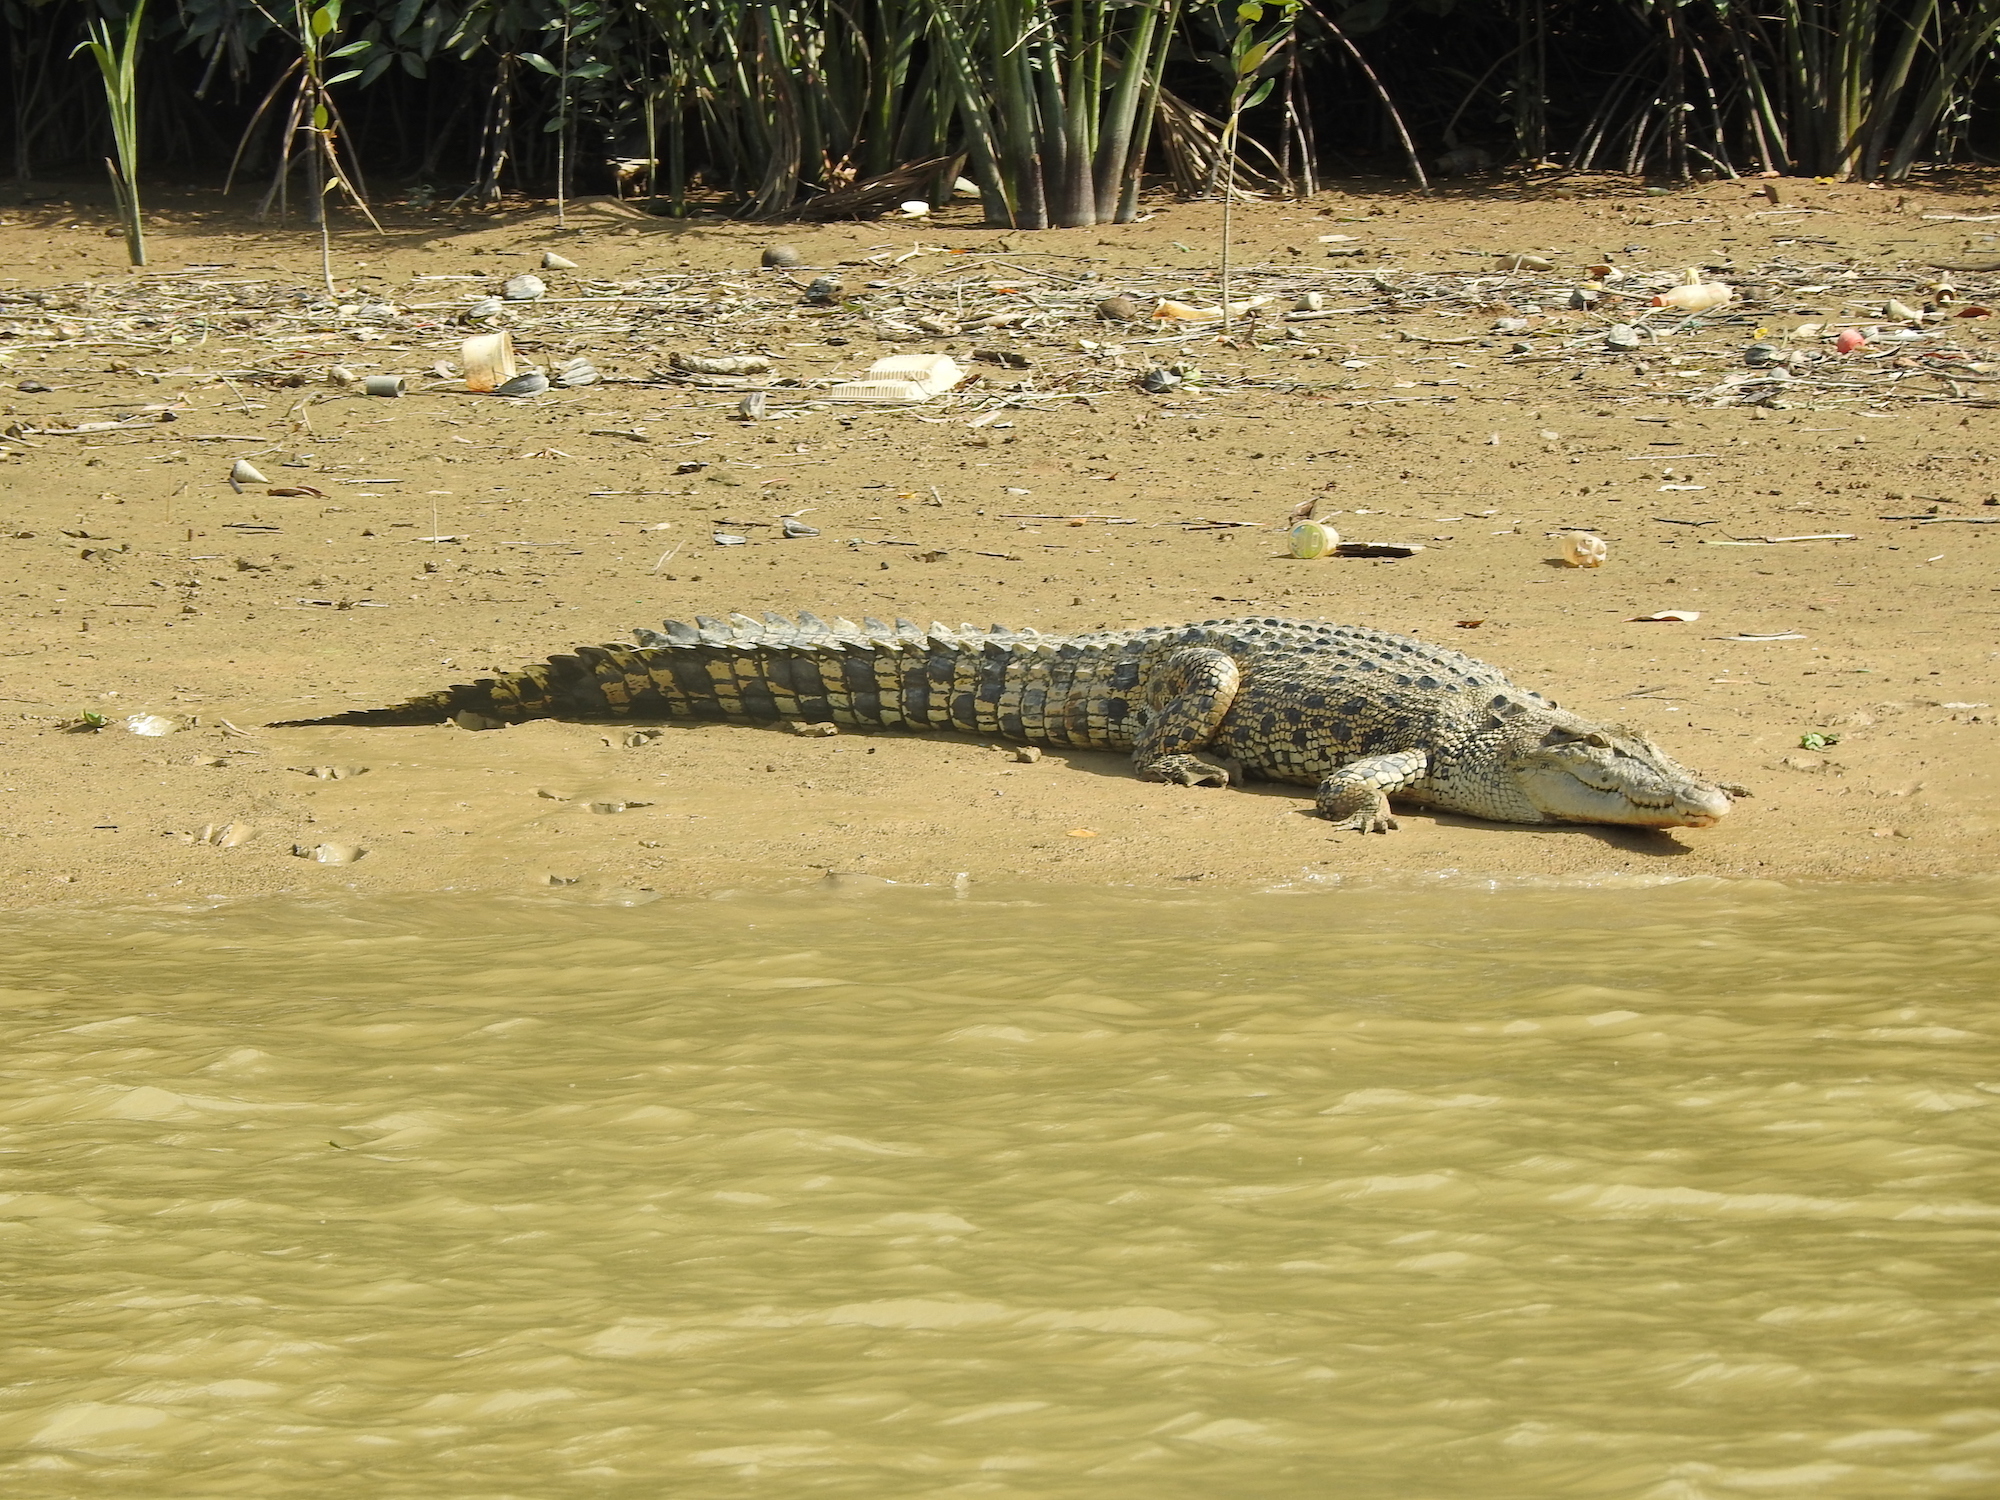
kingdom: Animalia
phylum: Chordata
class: Crocodylia
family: Crocodylidae
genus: Crocodylus
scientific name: Crocodylus porosus
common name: Saltwater crocodile
